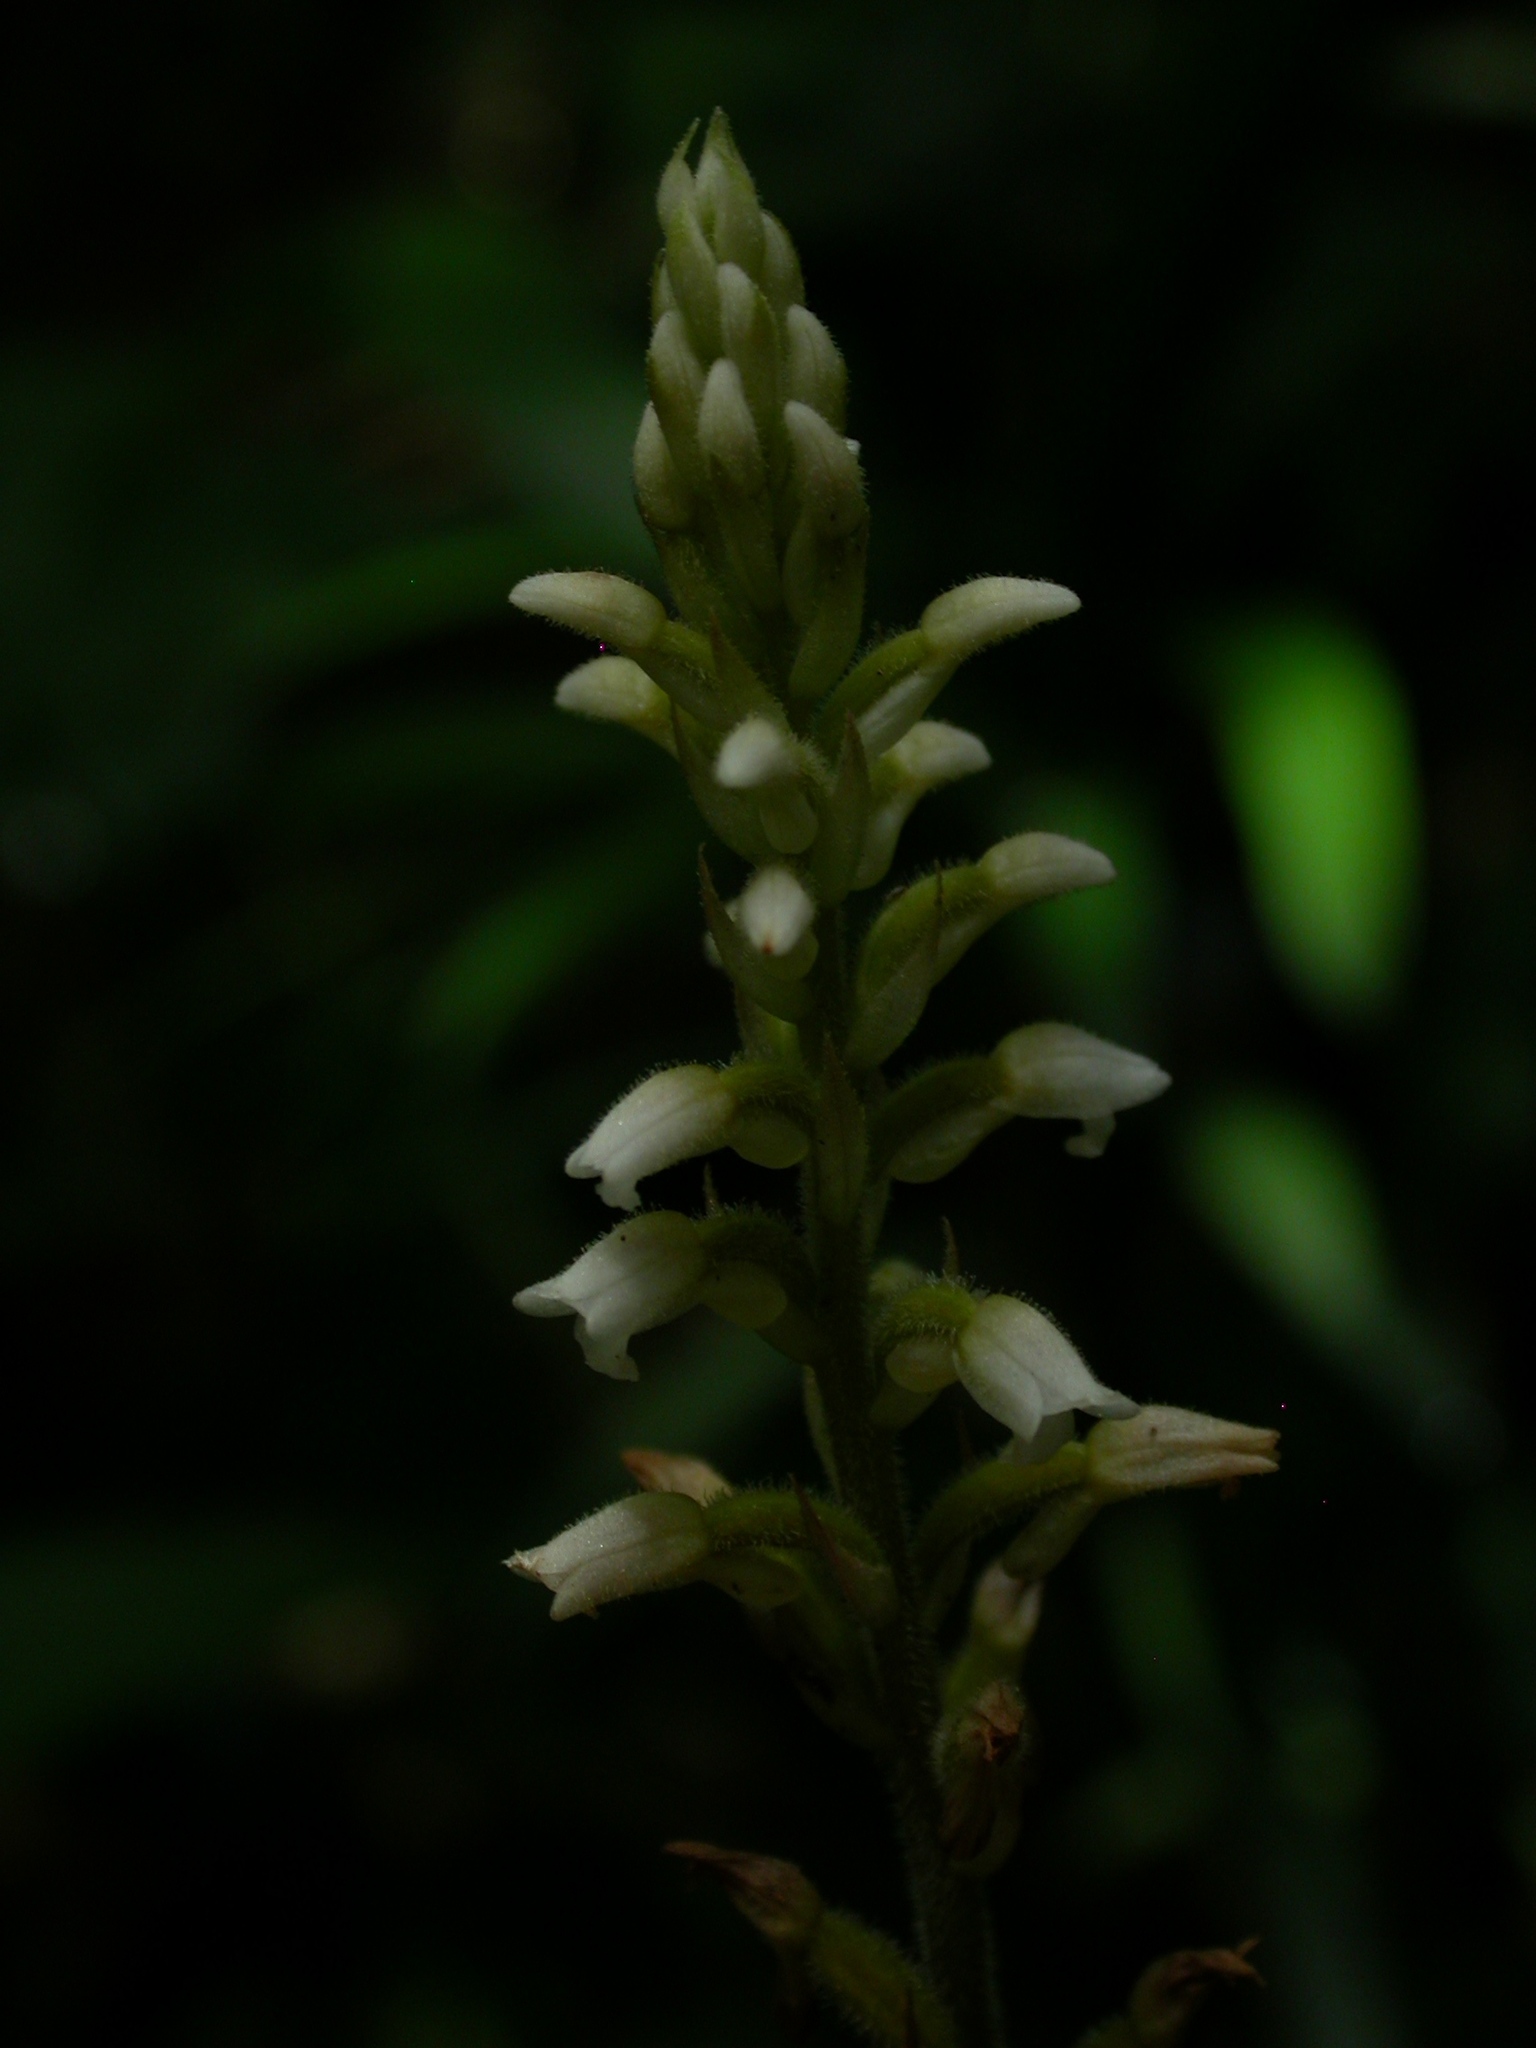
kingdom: Plantae
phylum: Tracheophyta
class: Liliopsida
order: Asparagales
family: Orchidaceae
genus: Microchilus
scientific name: Microchilus plantagineus
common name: Caribbean false helmetorchid
